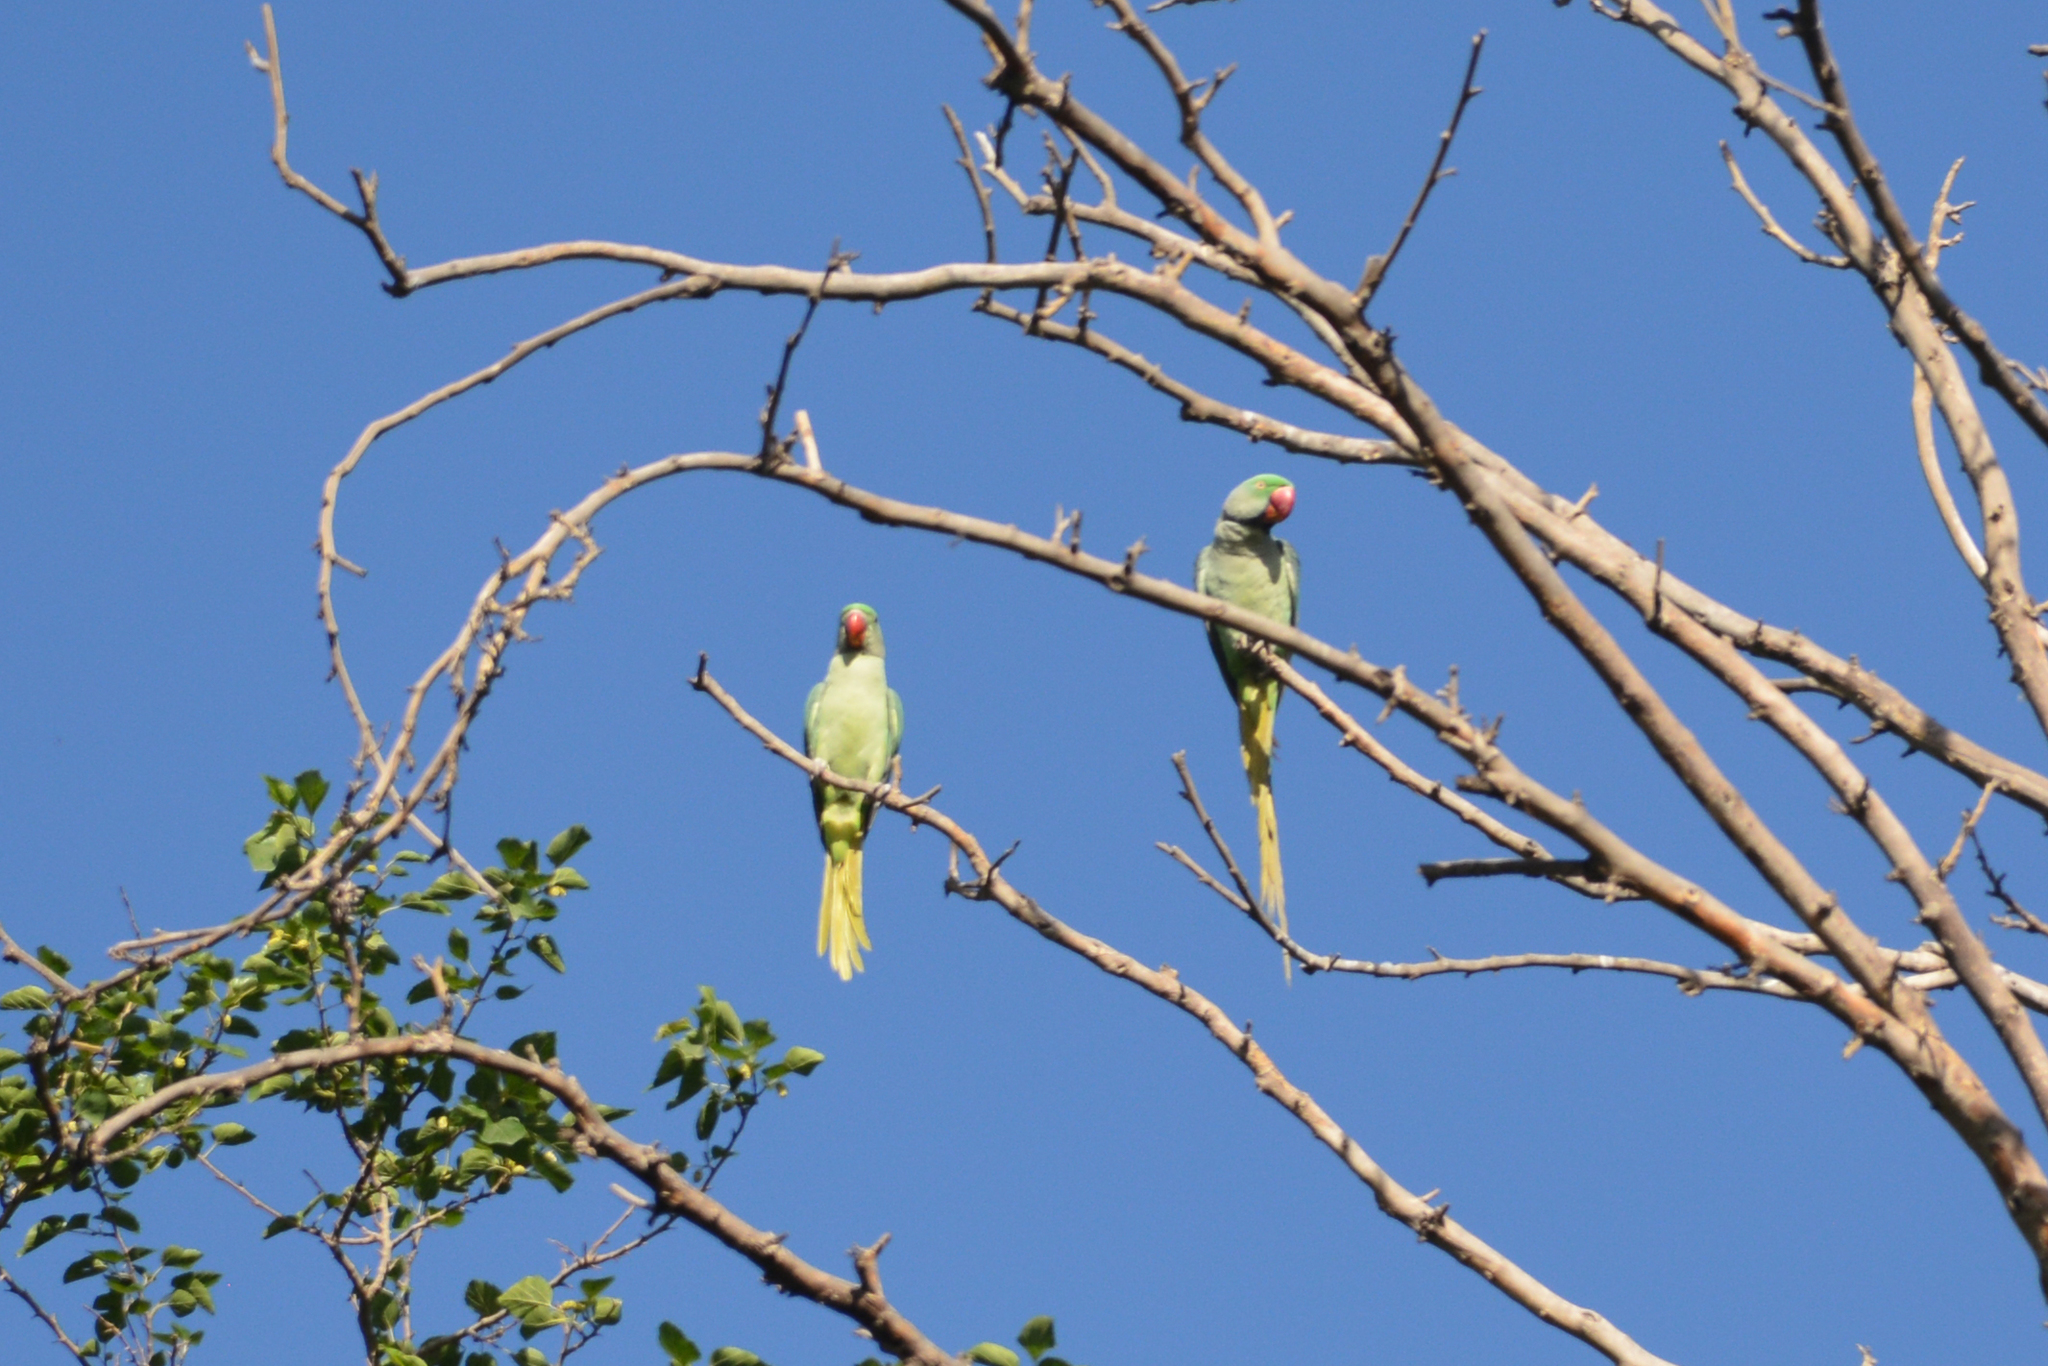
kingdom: Animalia
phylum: Chordata
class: Aves
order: Psittaciformes
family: Psittacidae
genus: Psittacula
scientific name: Psittacula eupatria
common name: Alexandrine parakeet
